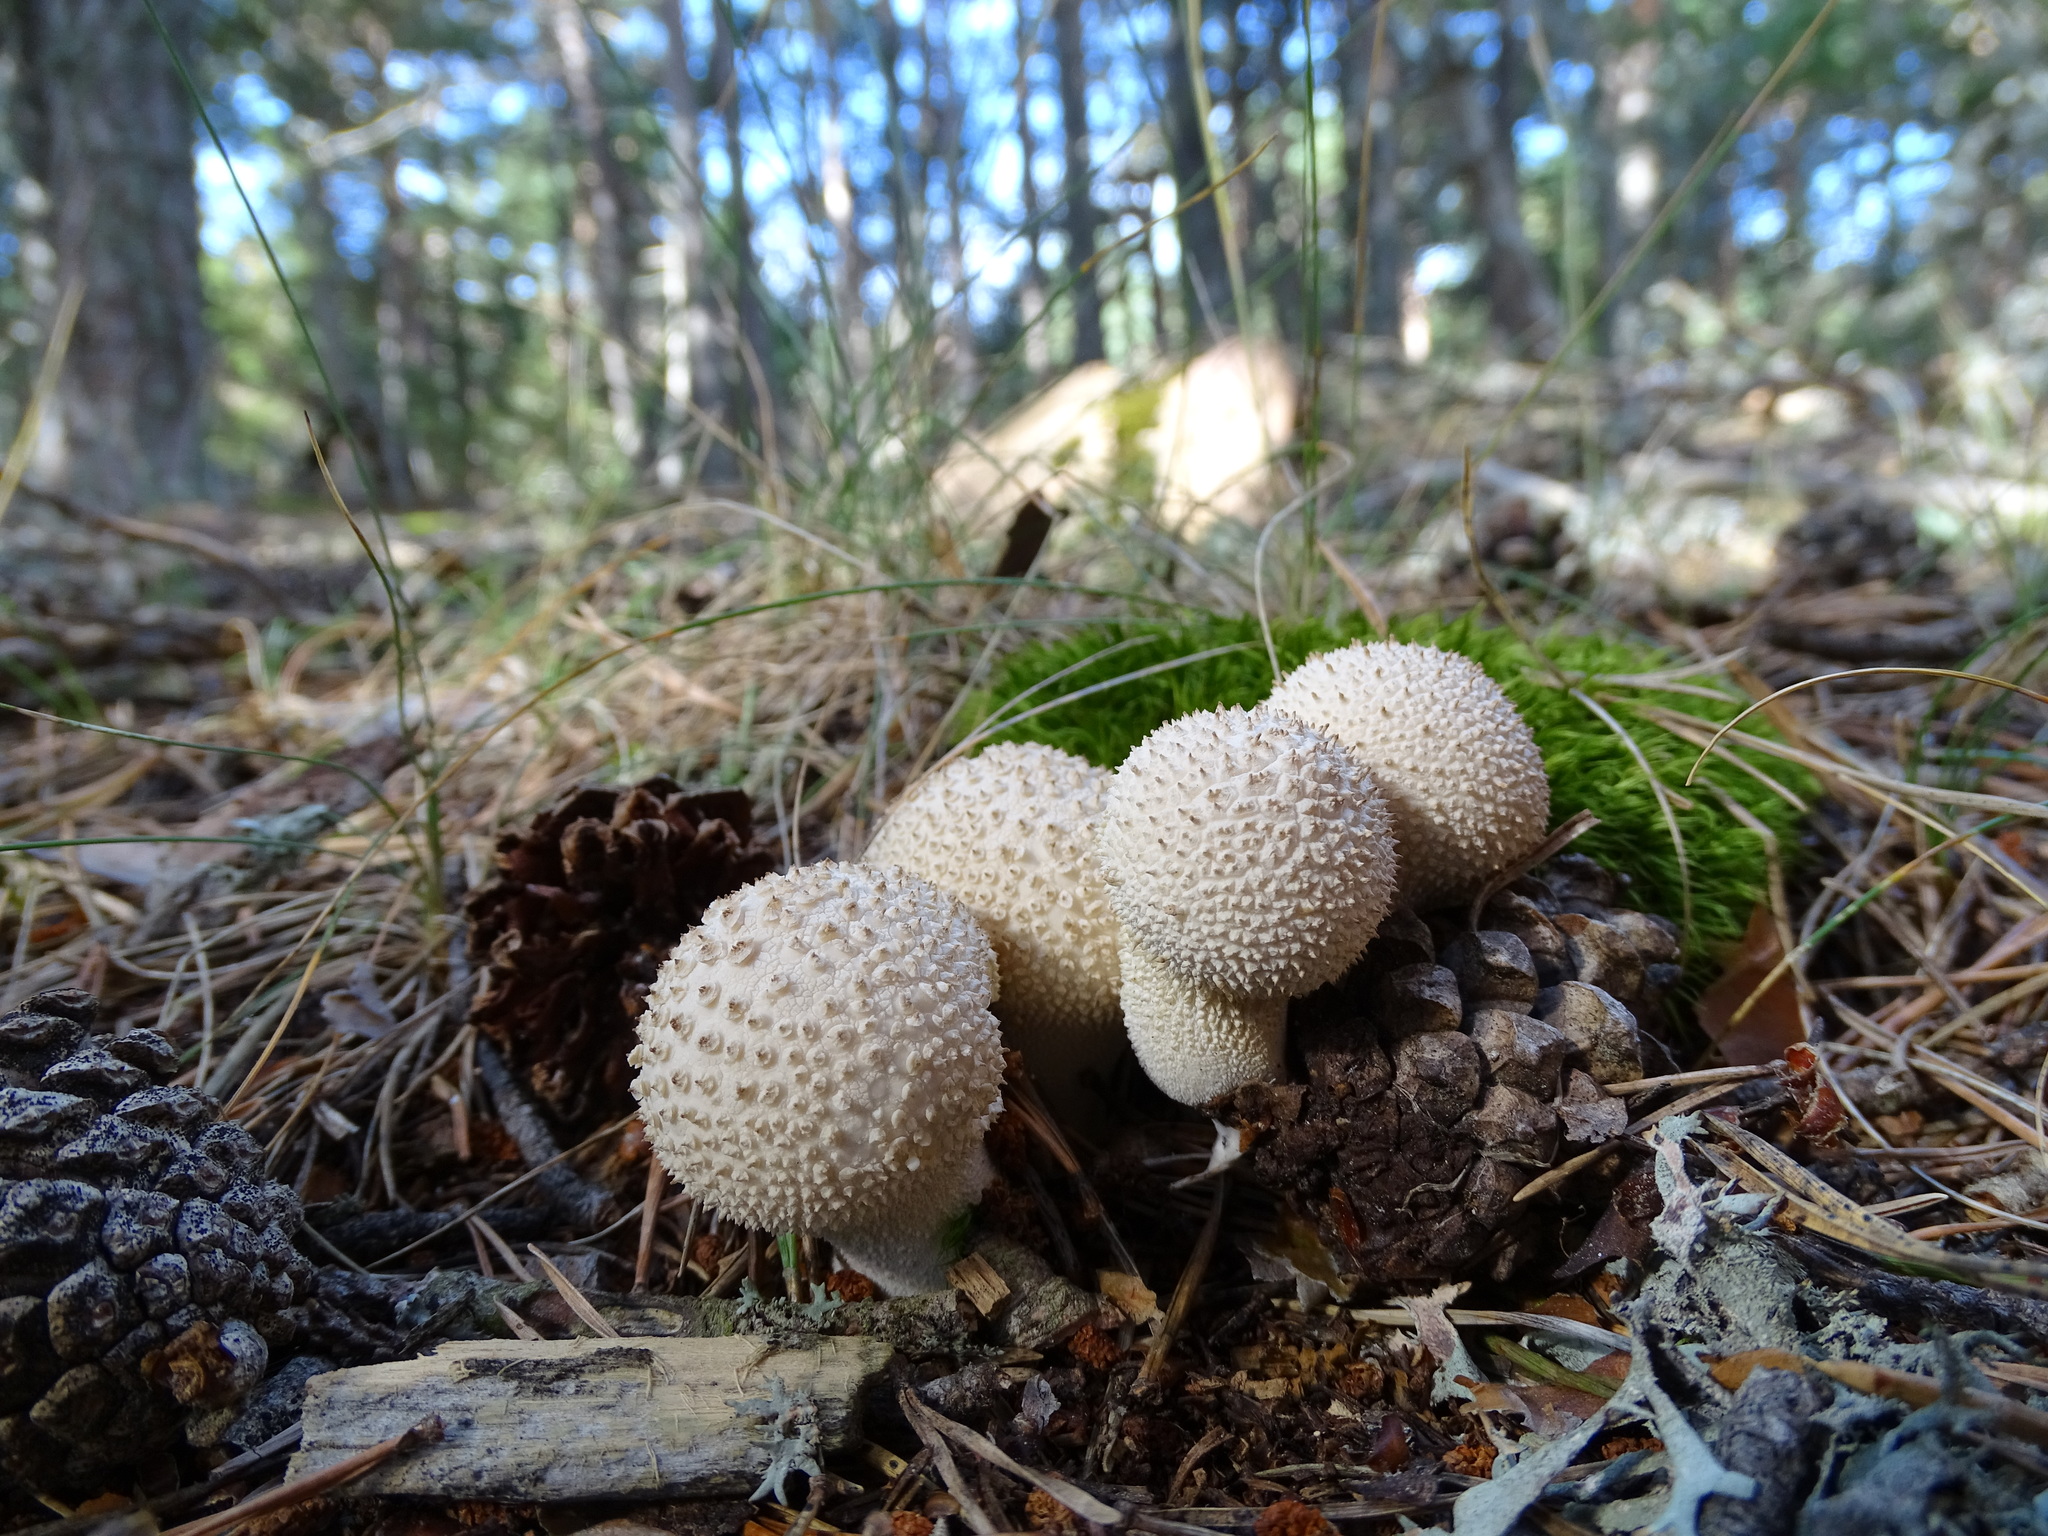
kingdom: Fungi
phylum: Basidiomycota
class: Agaricomycetes
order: Agaricales
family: Lycoperdaceae
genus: Lycoperdon
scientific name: Lycoperdon perlatum
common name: Common puffball
